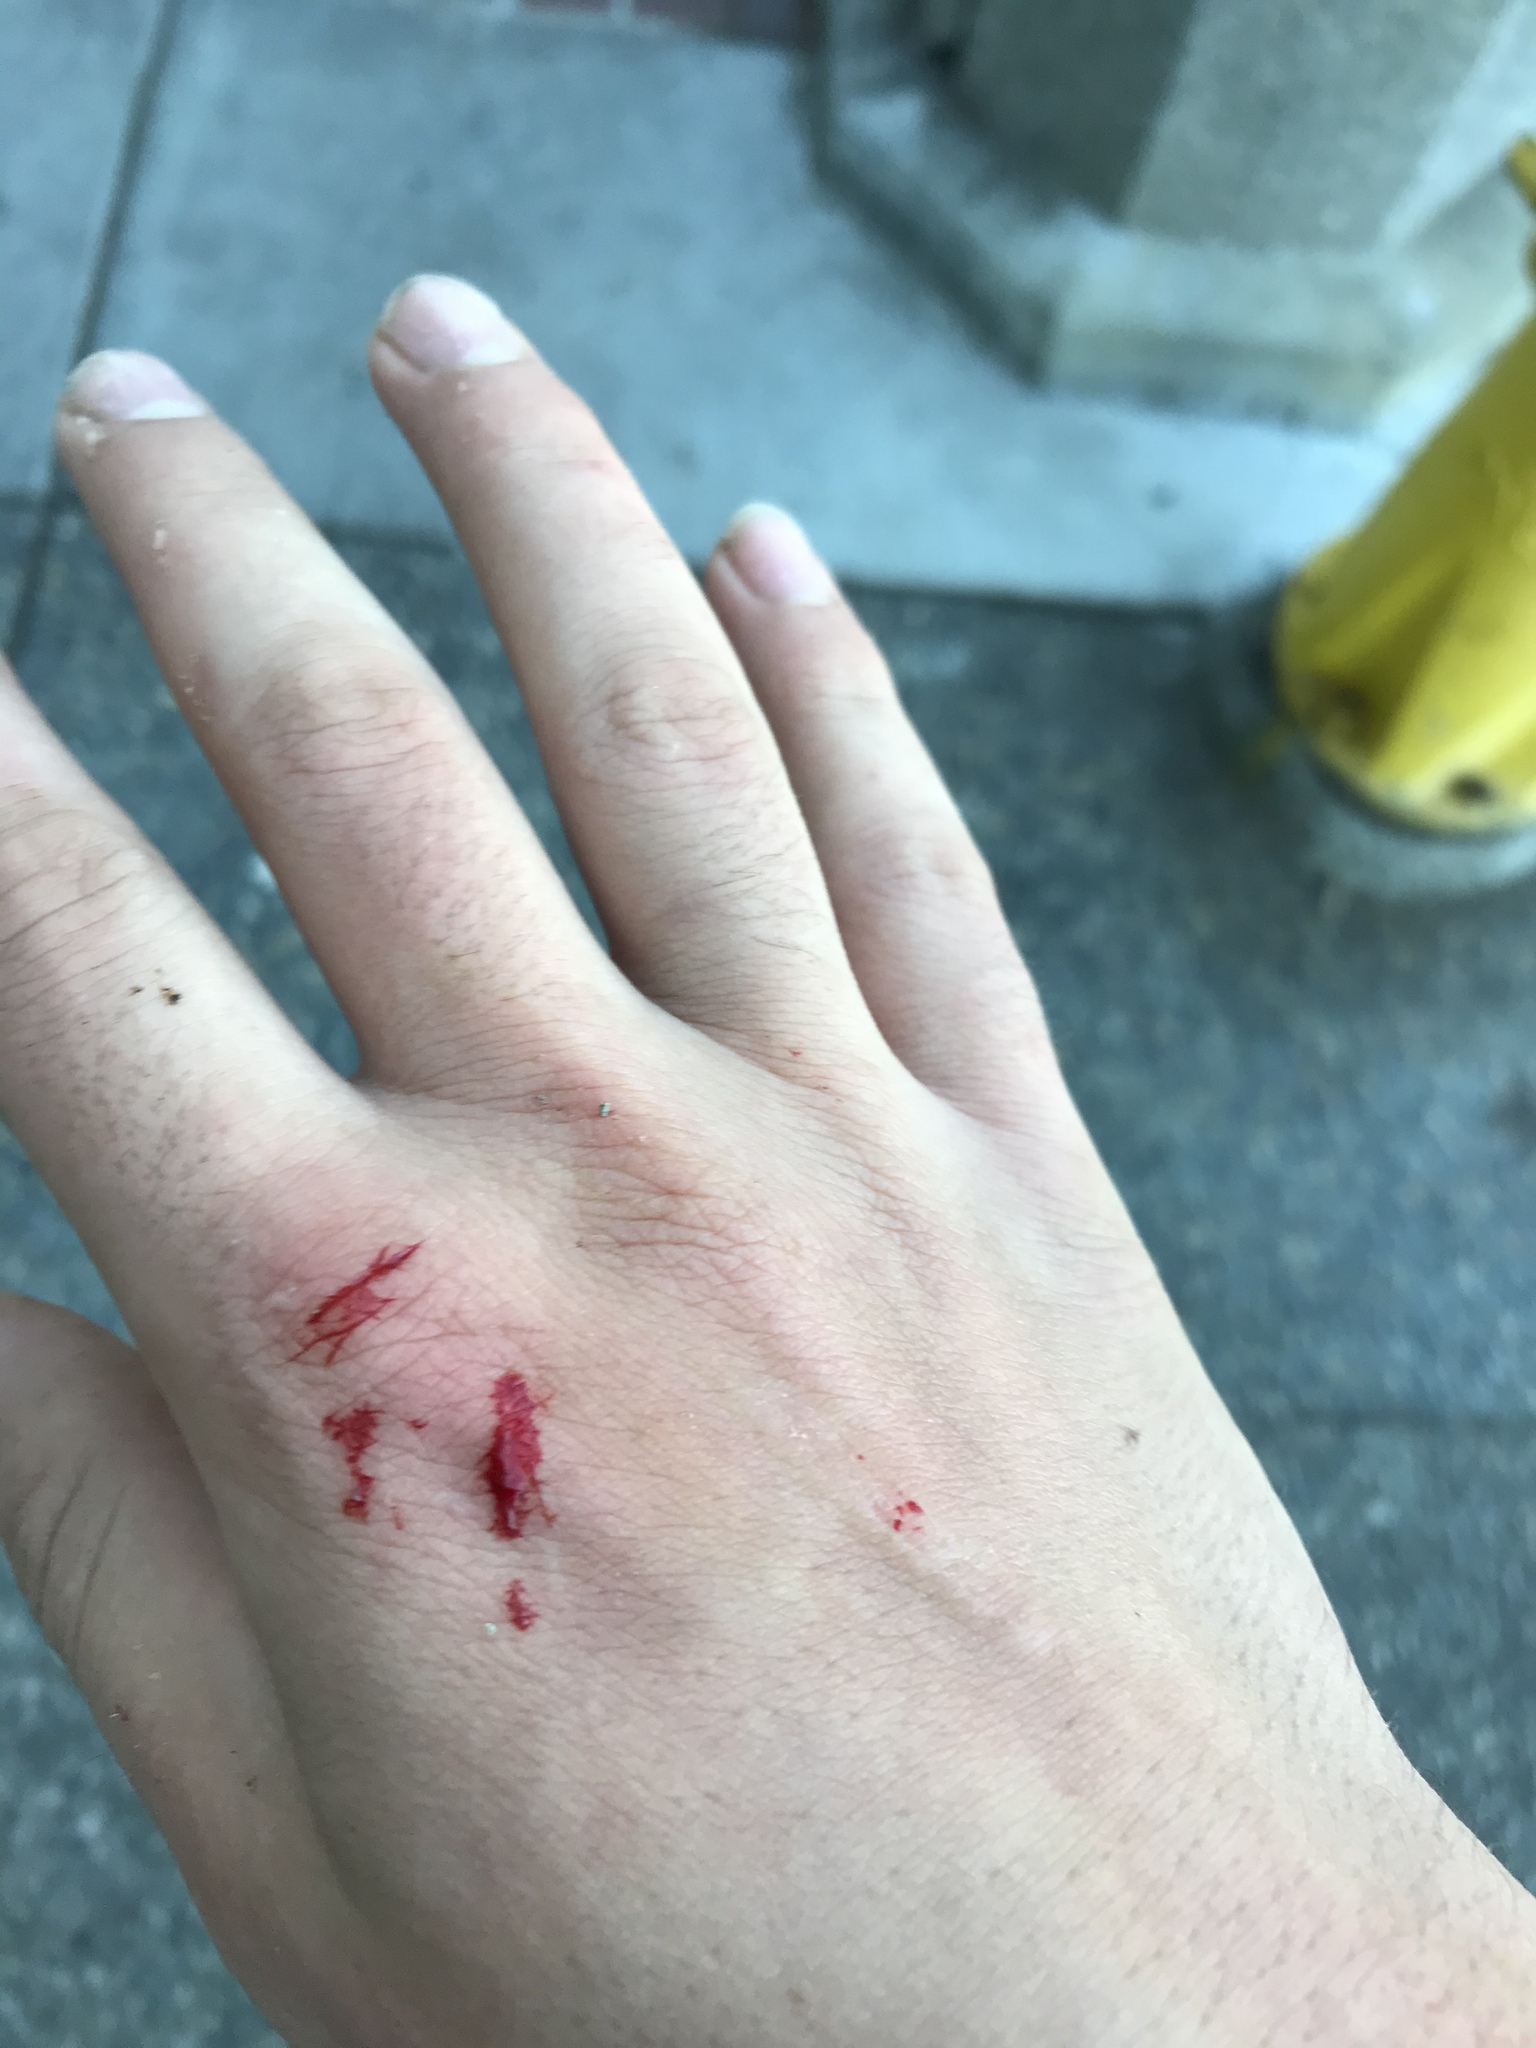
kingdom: Animalia
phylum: Arthropoda
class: Malacostraca
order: Decapoda
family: Grapsidae
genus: Pachygrapsus
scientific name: Pachygrapsus crassipes
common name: Striped shore crab
